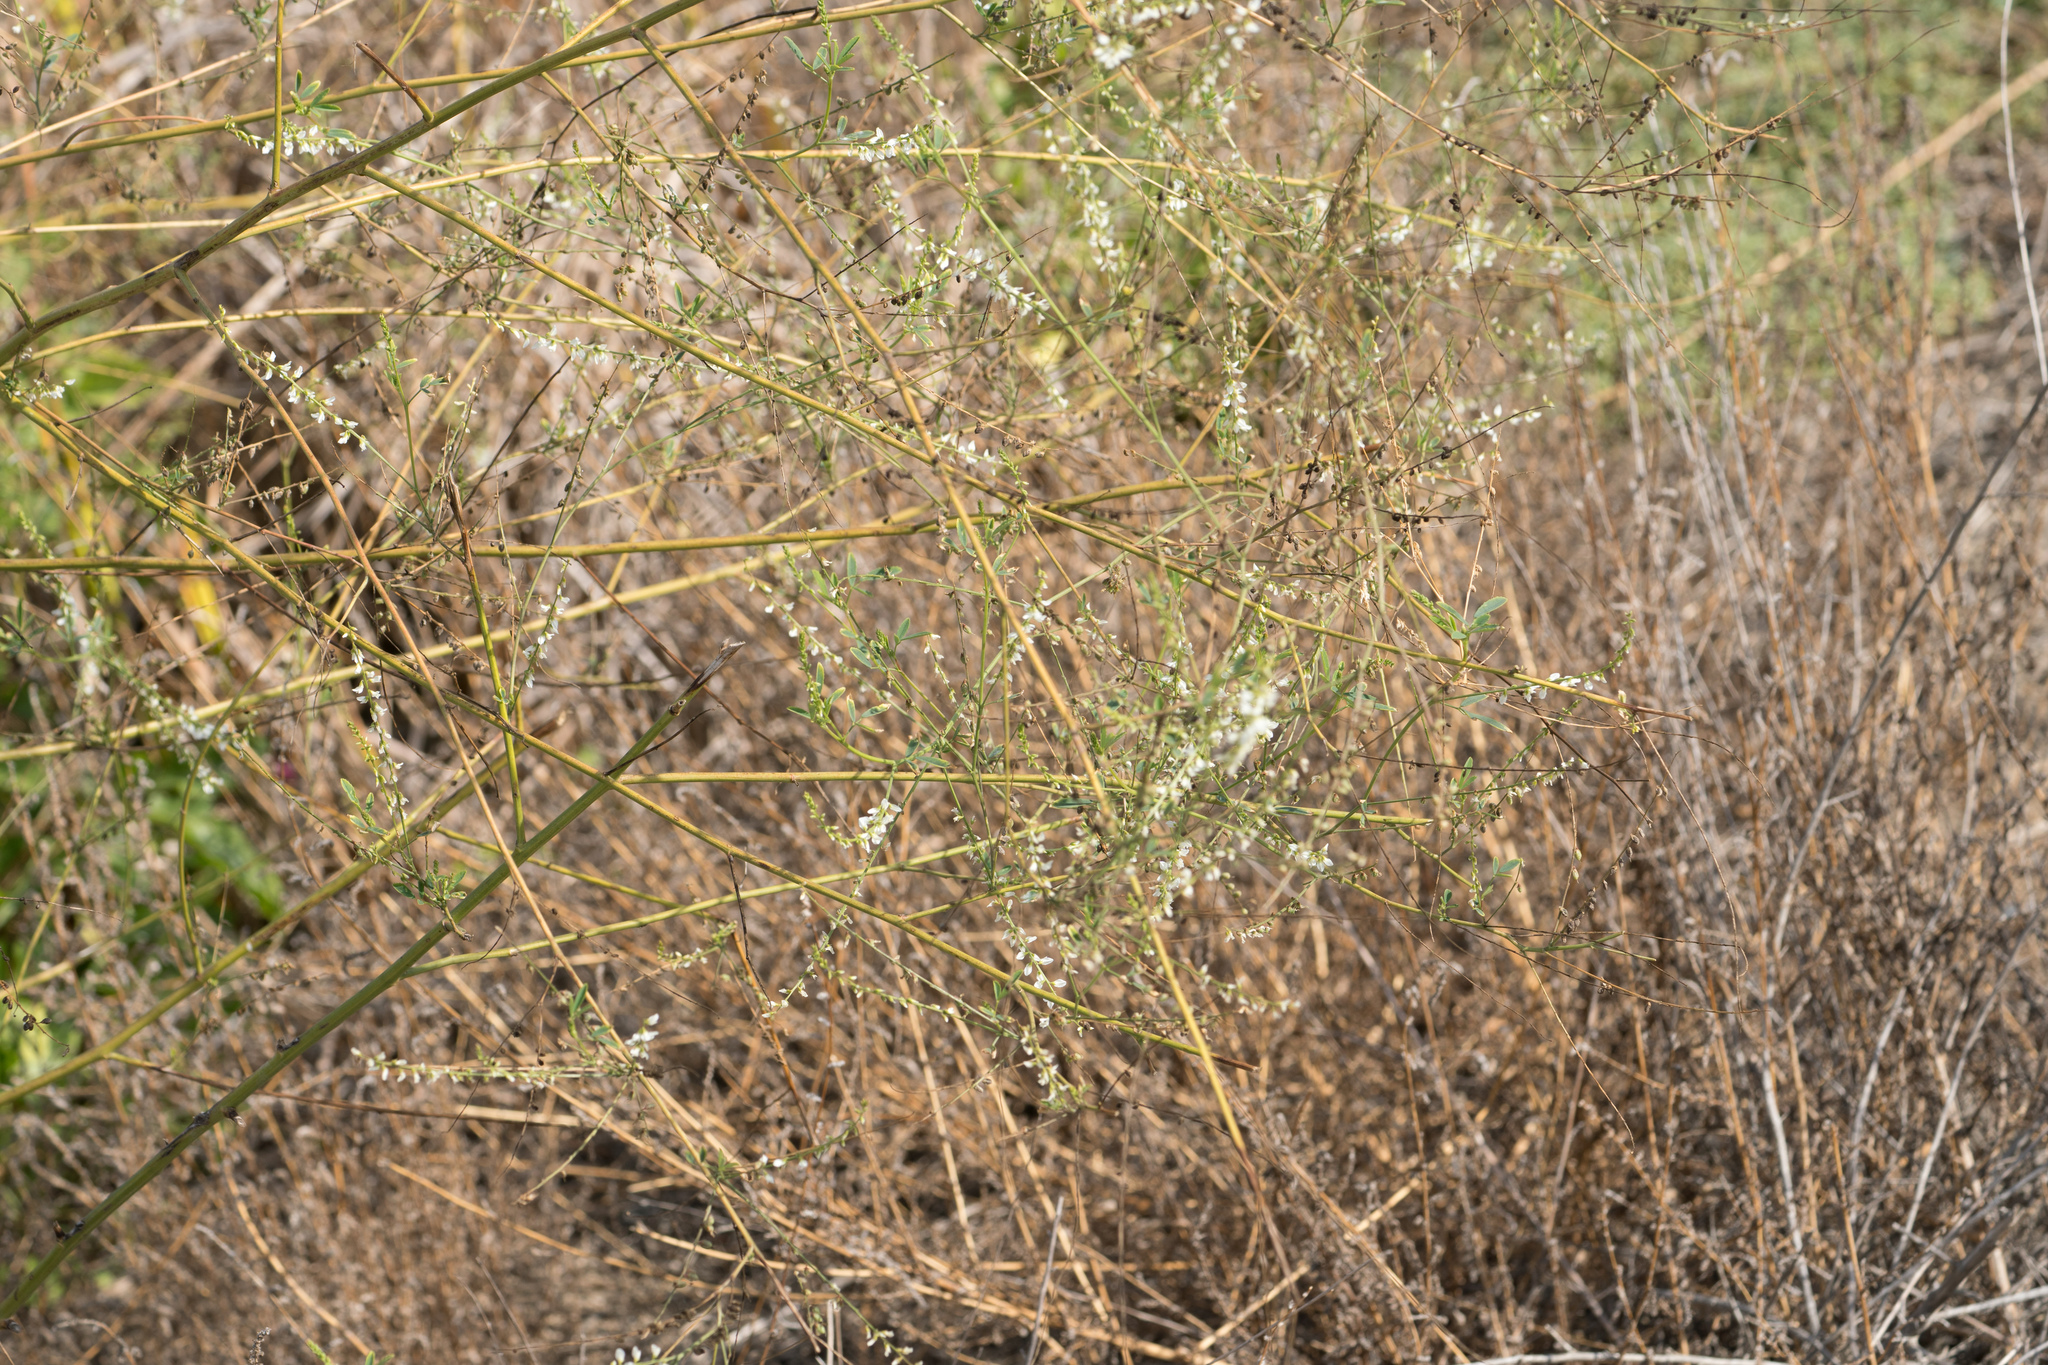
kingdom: Plantae
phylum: Tracheophyta
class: Magnoliopsida
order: Fabales
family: Fabaceae
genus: Melilotus
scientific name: Melilotus albus
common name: White melilot
